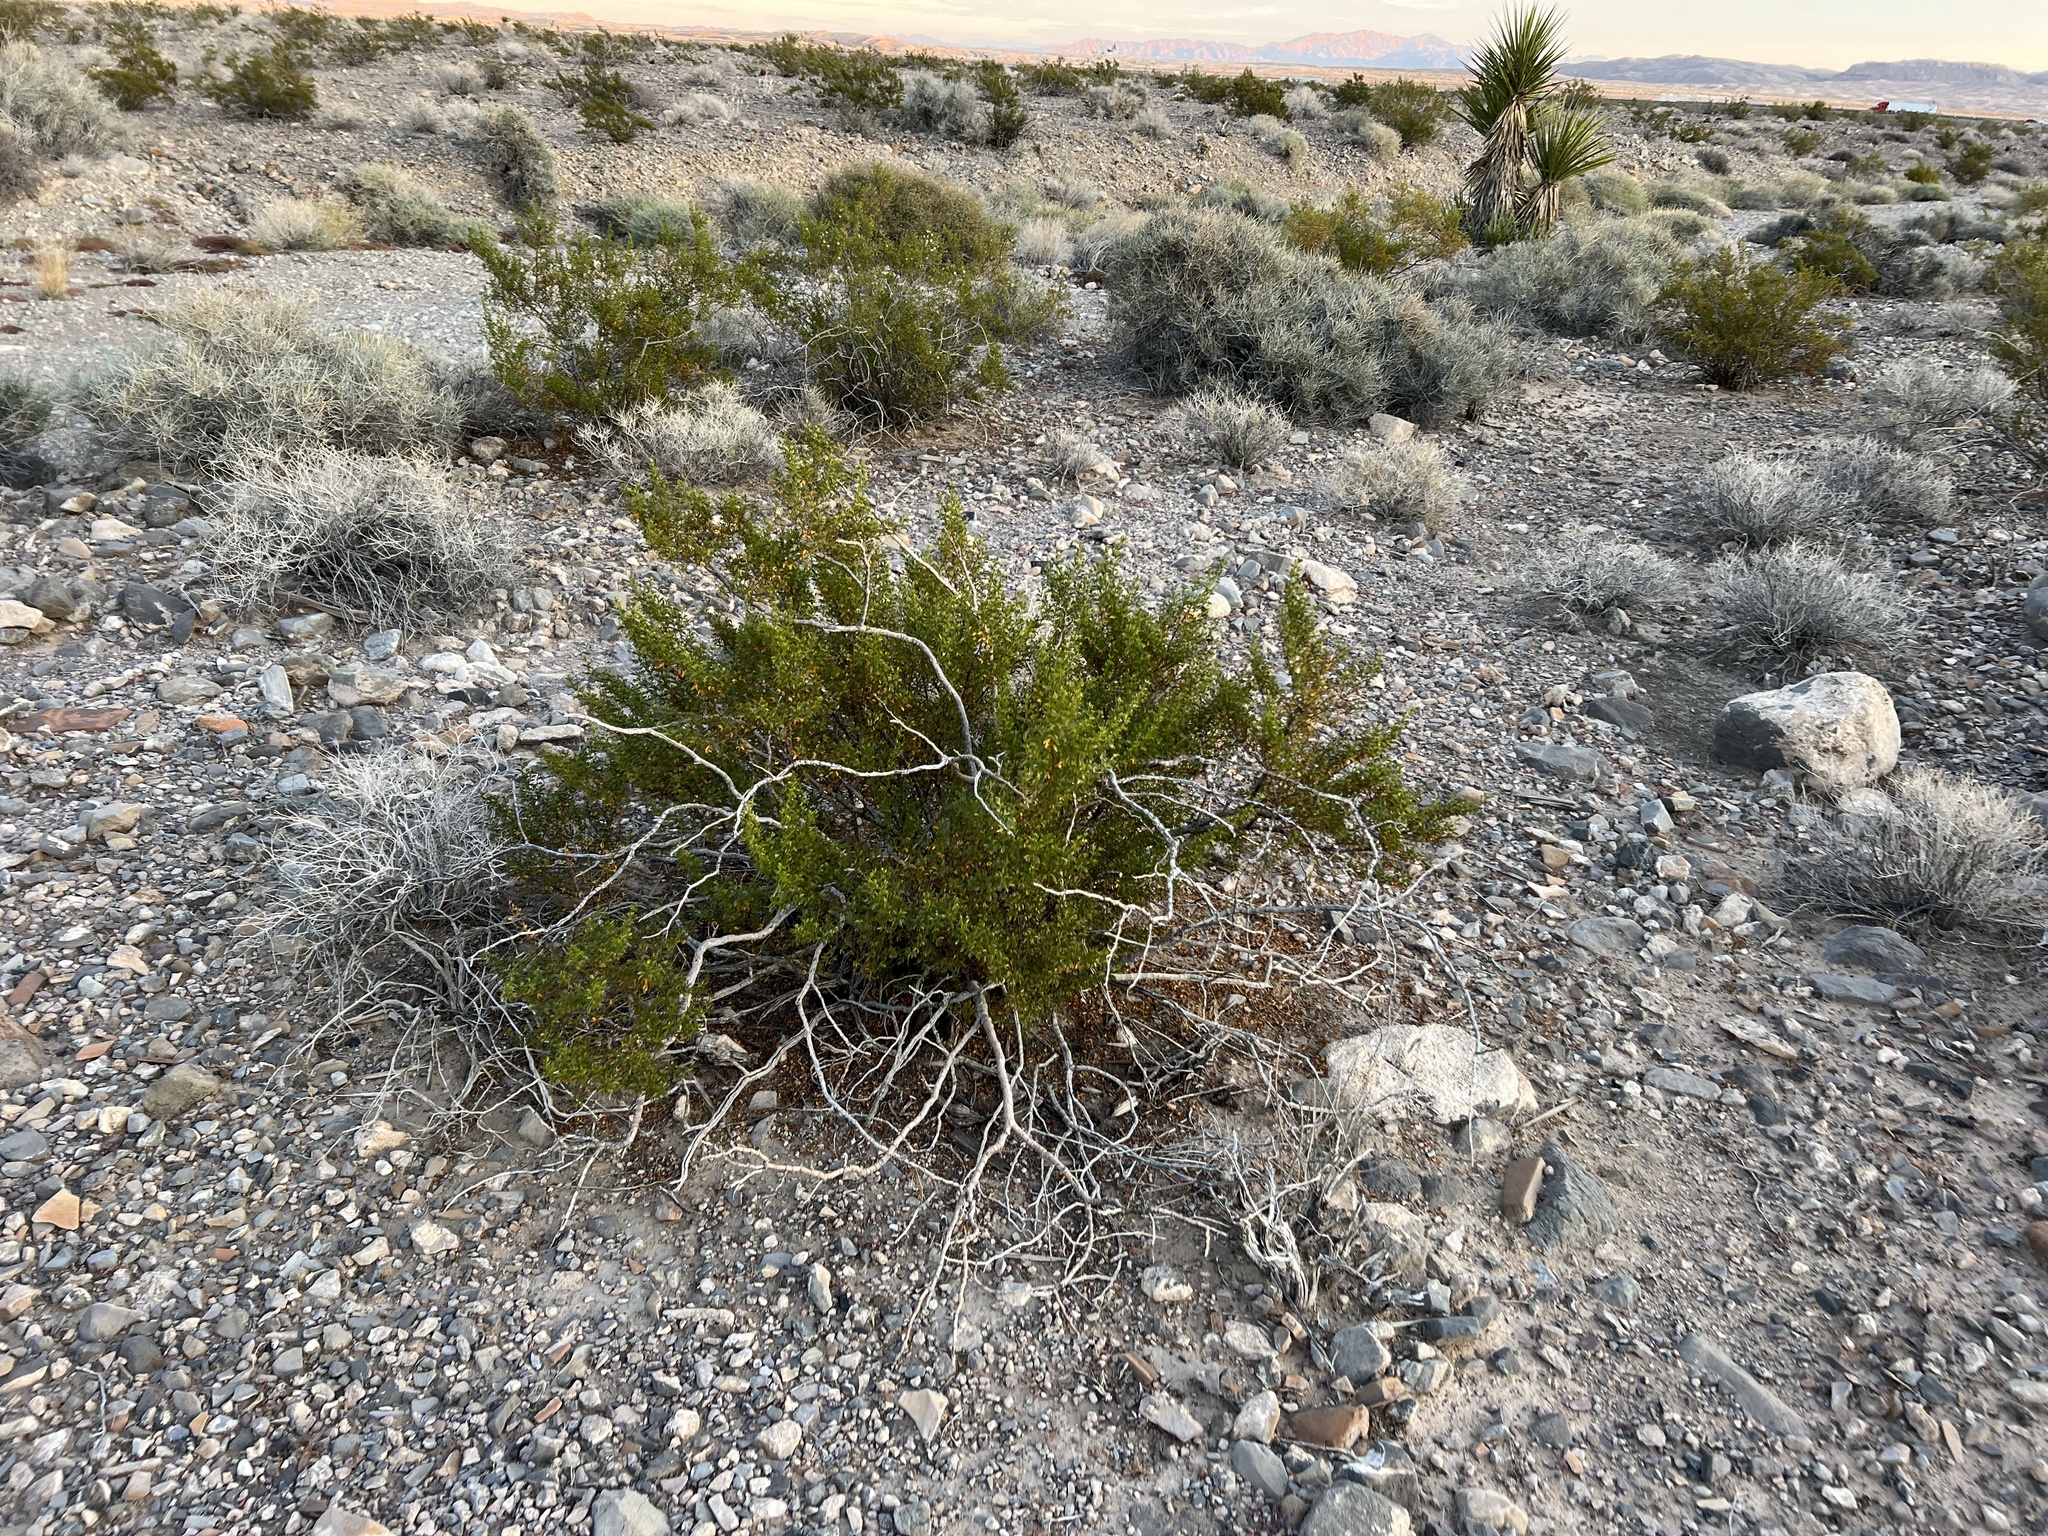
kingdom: Plantae
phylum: Tracheophyta
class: Magnoliopsida
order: Zygophyllales
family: Zygophyllaceae
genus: Larrea
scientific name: Larrea tridentata
